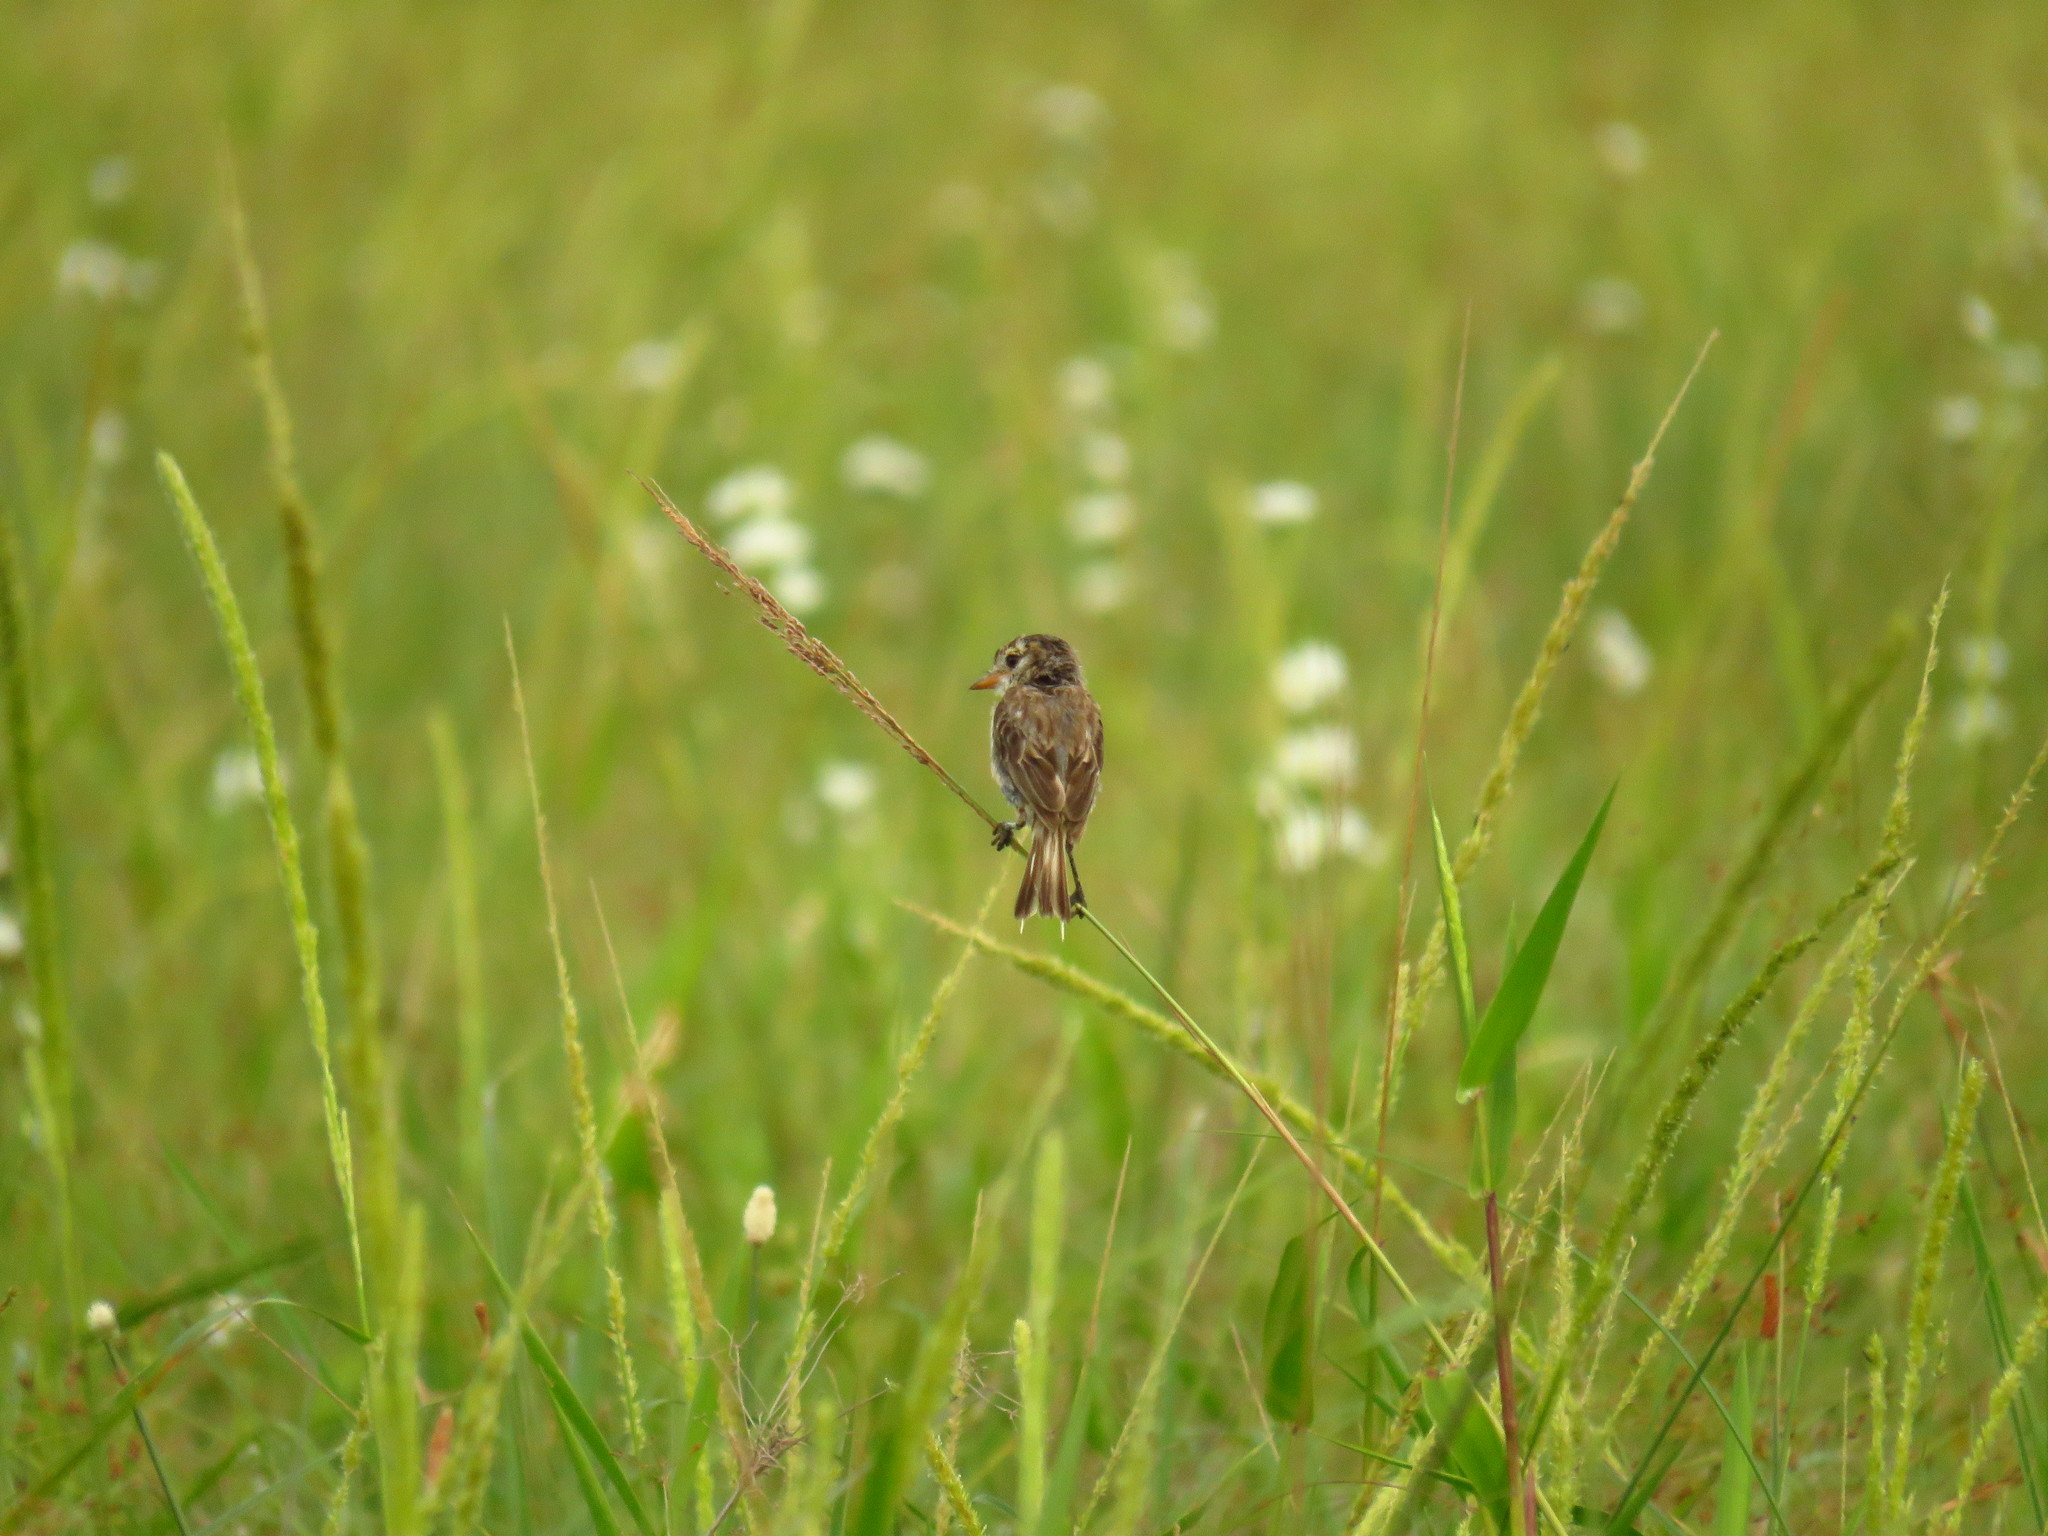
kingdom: Animalia
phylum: Chordata
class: Aves
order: Passeriformes
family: Tyrannidae
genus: Alectrurus
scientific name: Alectrurus risora
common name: Strange-tailed tyrant
